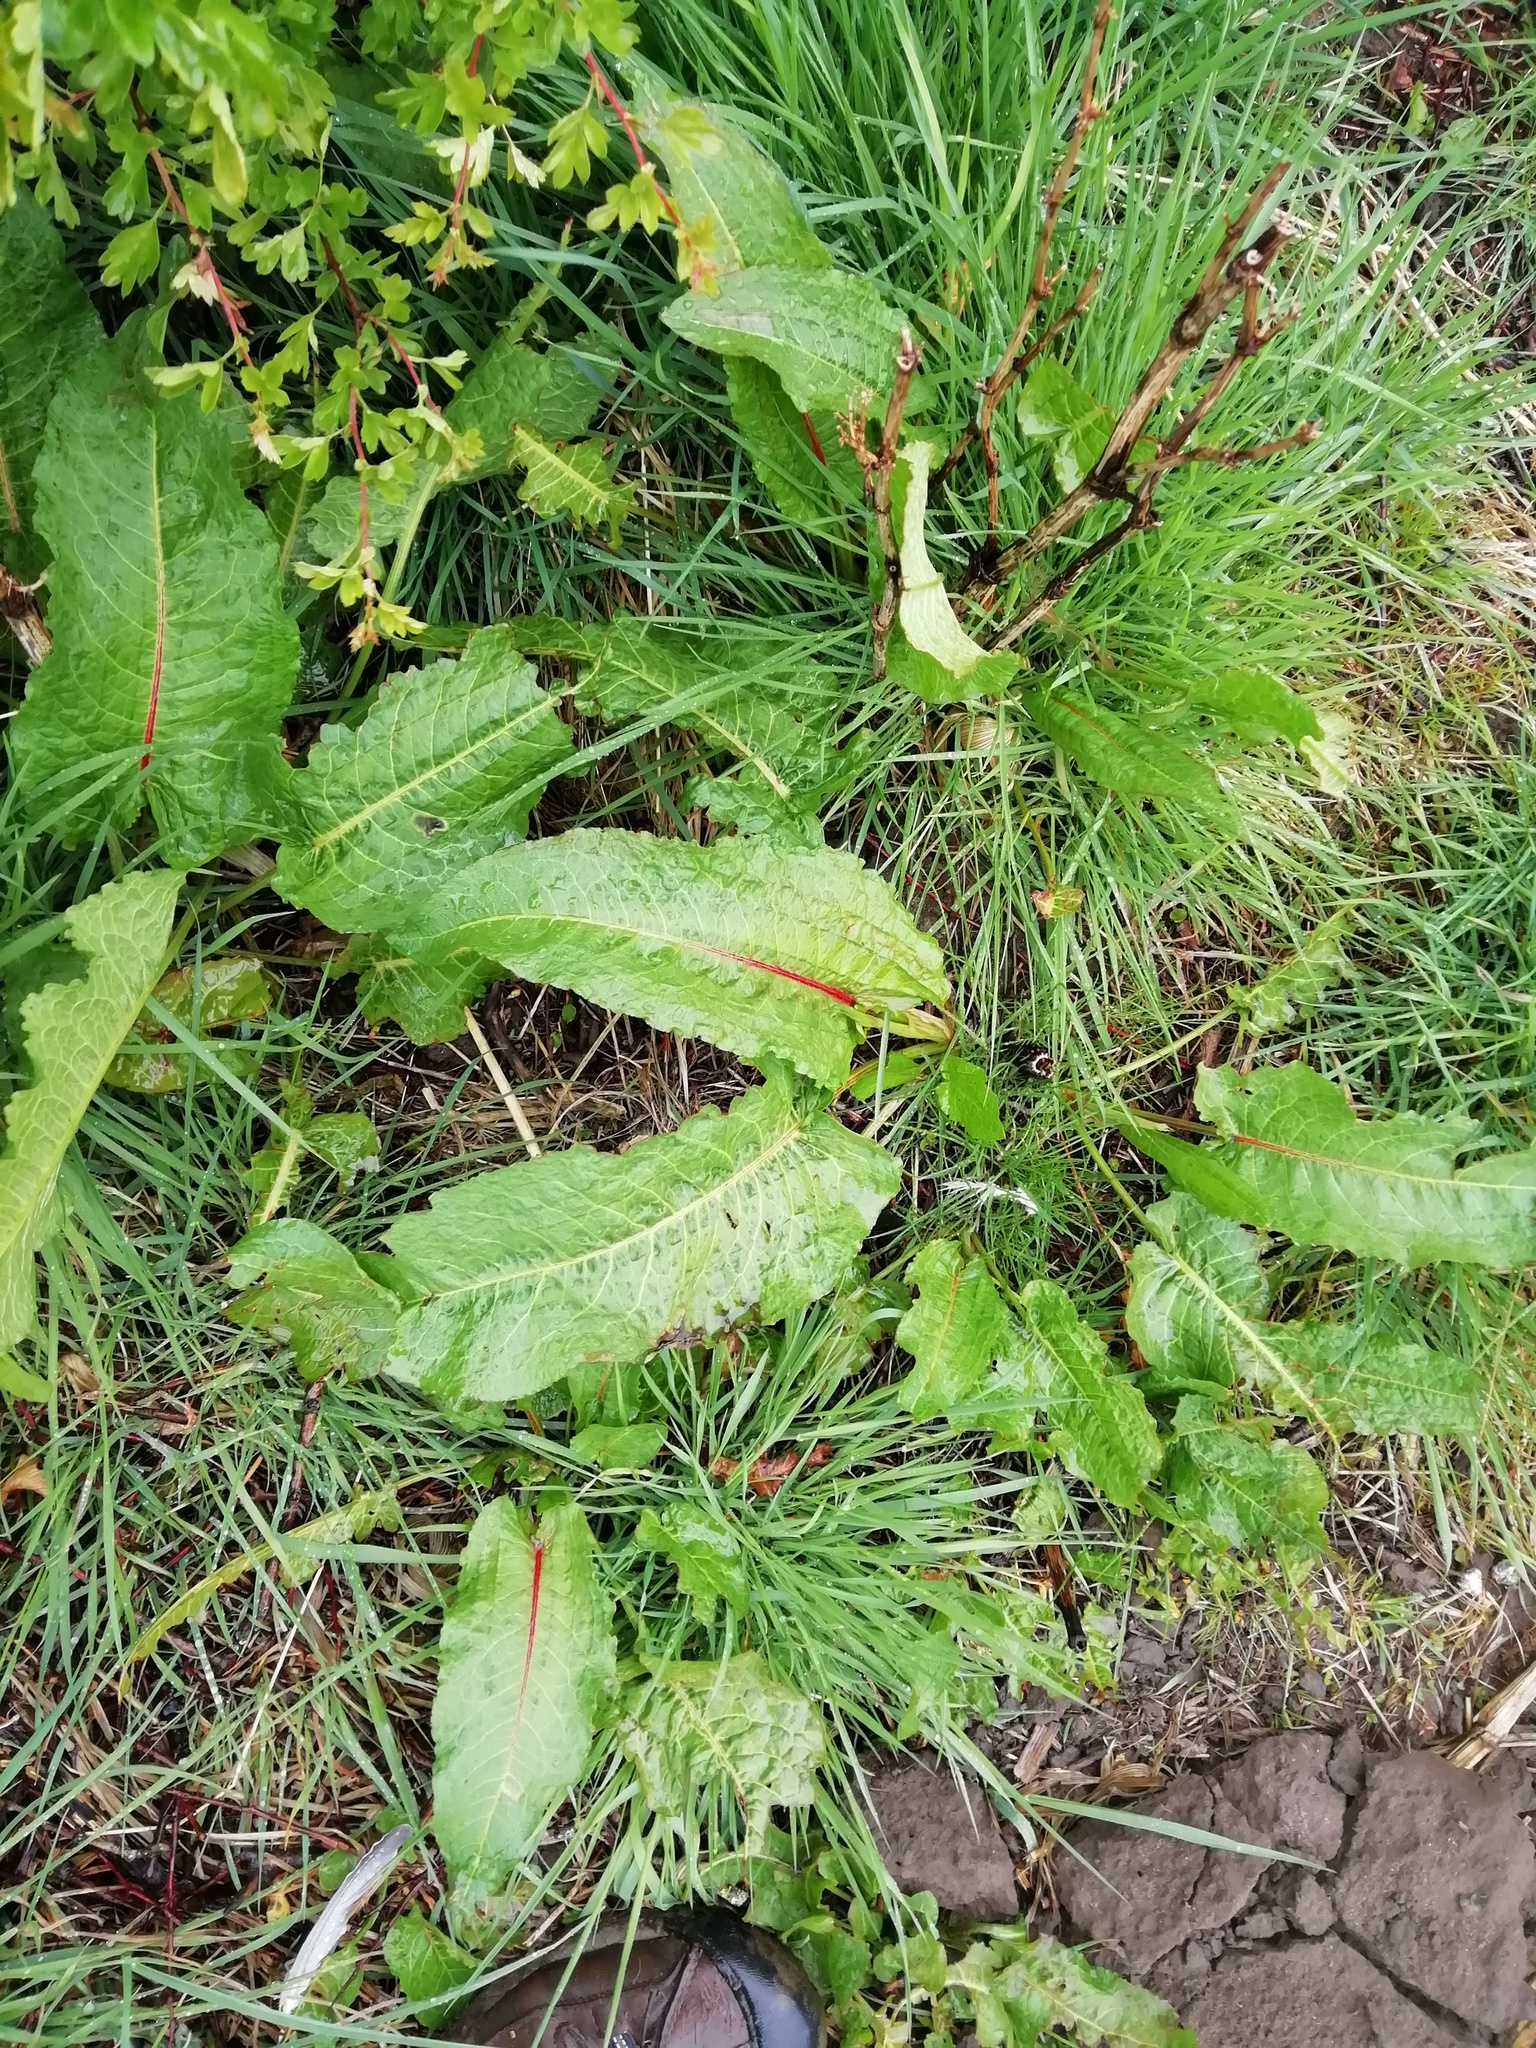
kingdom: Plantae
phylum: Tracheophyta
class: Magnoliopsida
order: Caryophyllales
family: Polygonaceae
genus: Rumex
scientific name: Rumex obtusifolius
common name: Bitter dock
